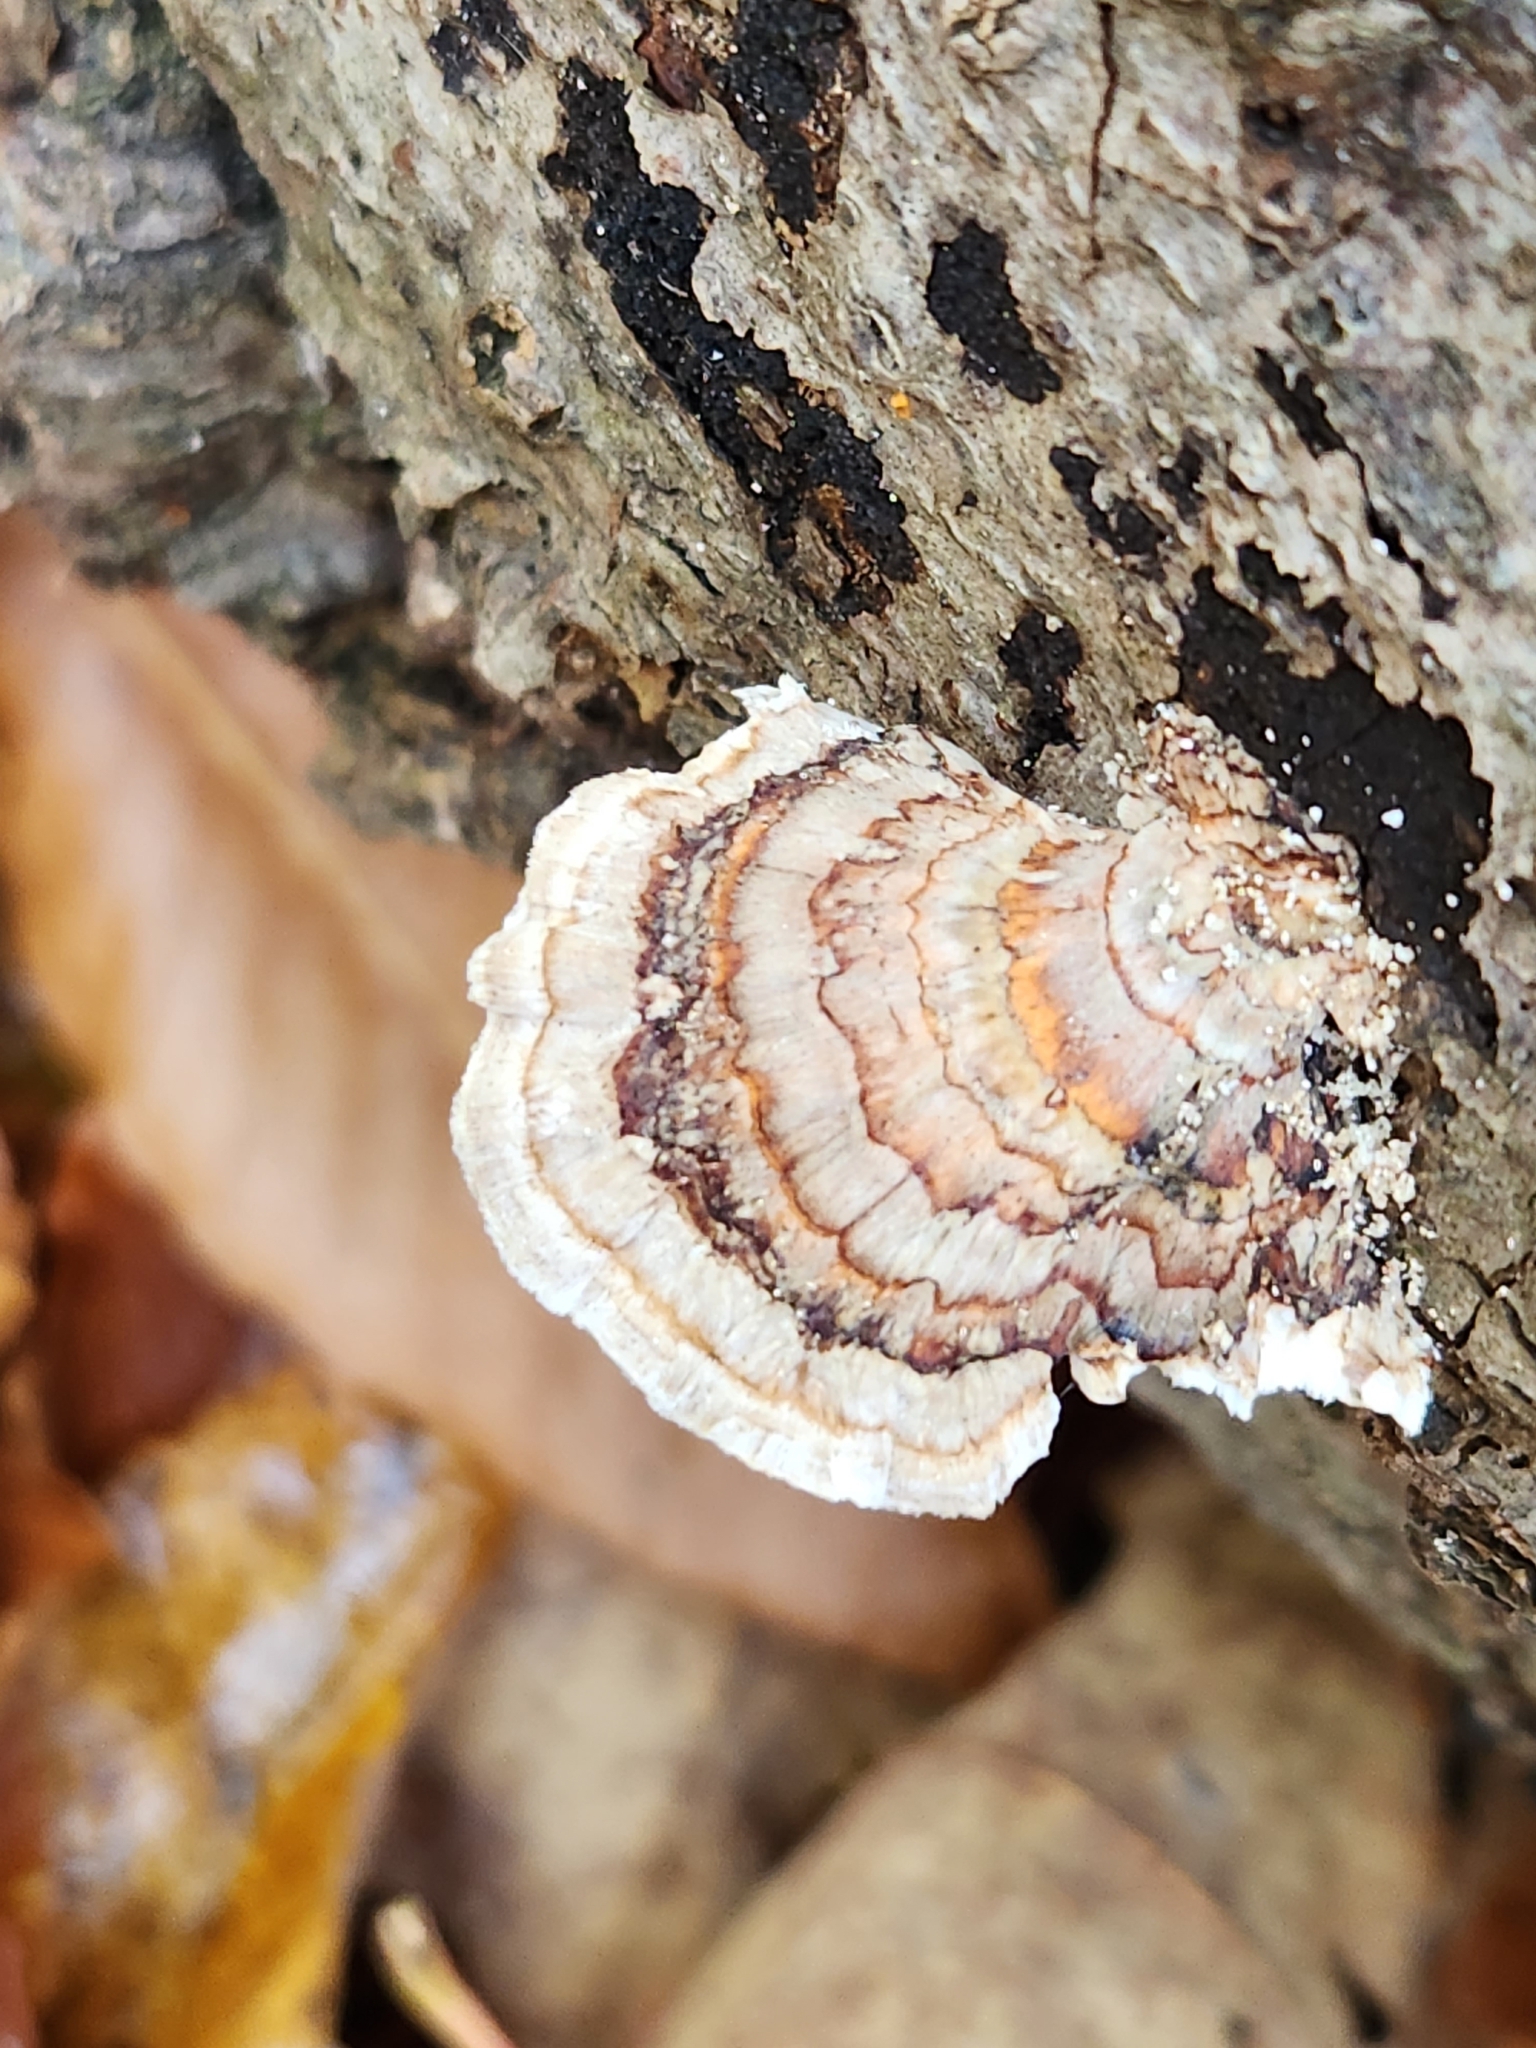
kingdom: Fungi
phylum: Basidiomycota
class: Agaricomycetes
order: Polyporales
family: Polyporaceae
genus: Trametes
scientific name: Trametes versicolor
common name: Turkeytail
